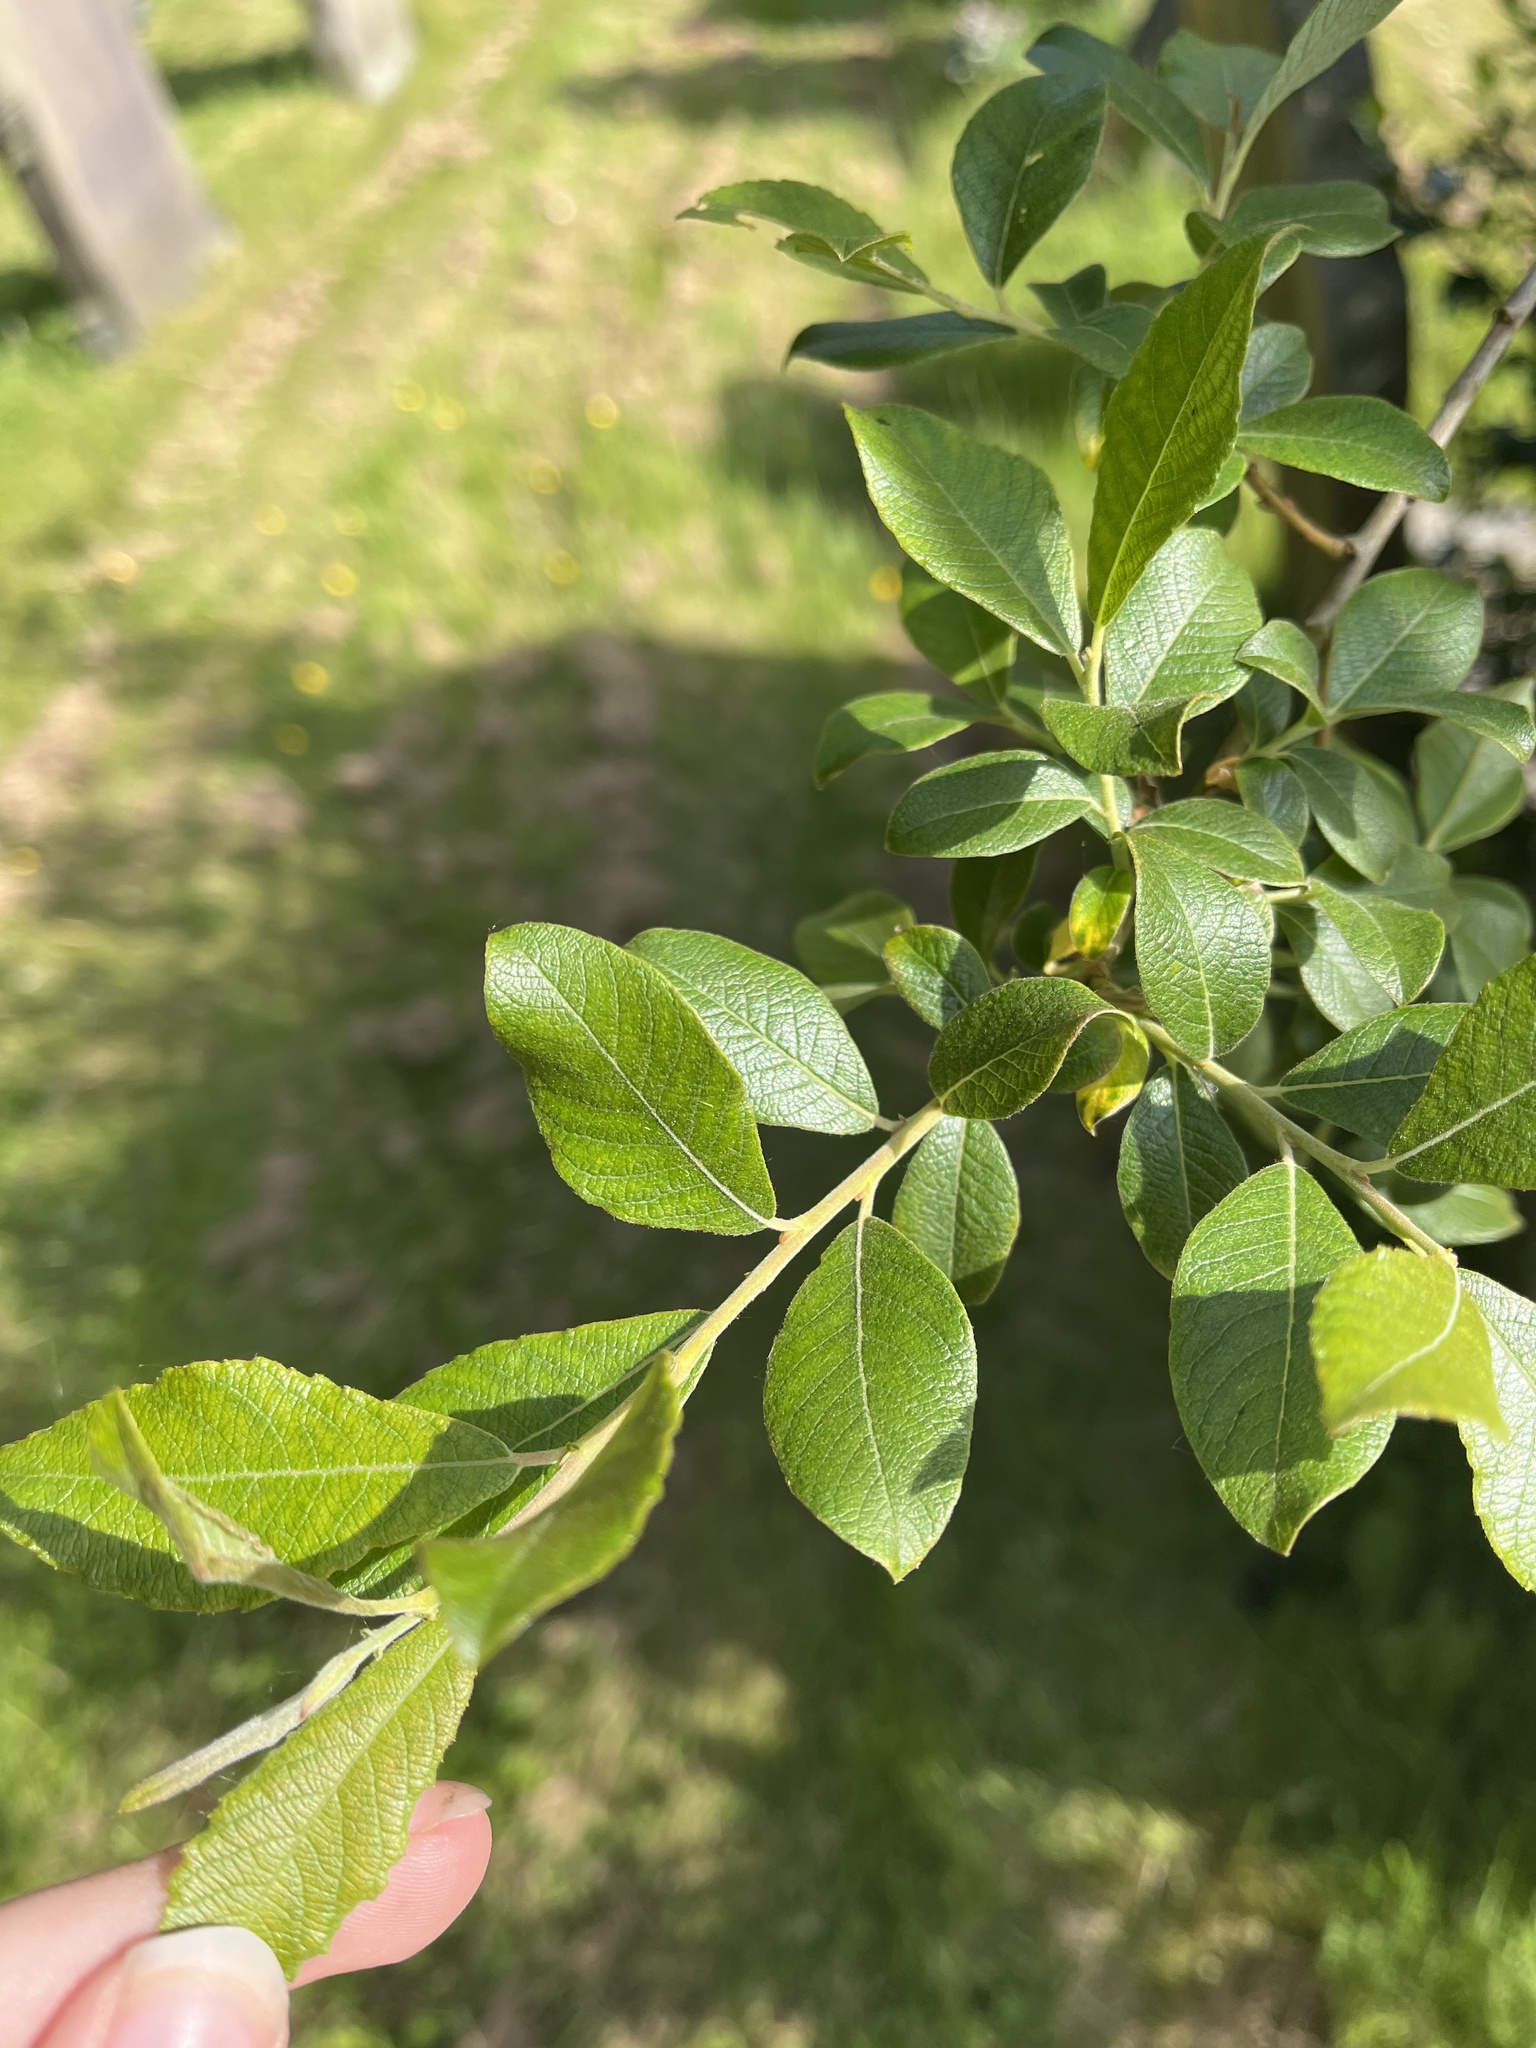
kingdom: Plantae
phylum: Tracheophyta
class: Magnoliopsida
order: Malpighiales
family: Salicaceae
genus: Salix
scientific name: Salix atrocinerea
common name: Rusty willow
